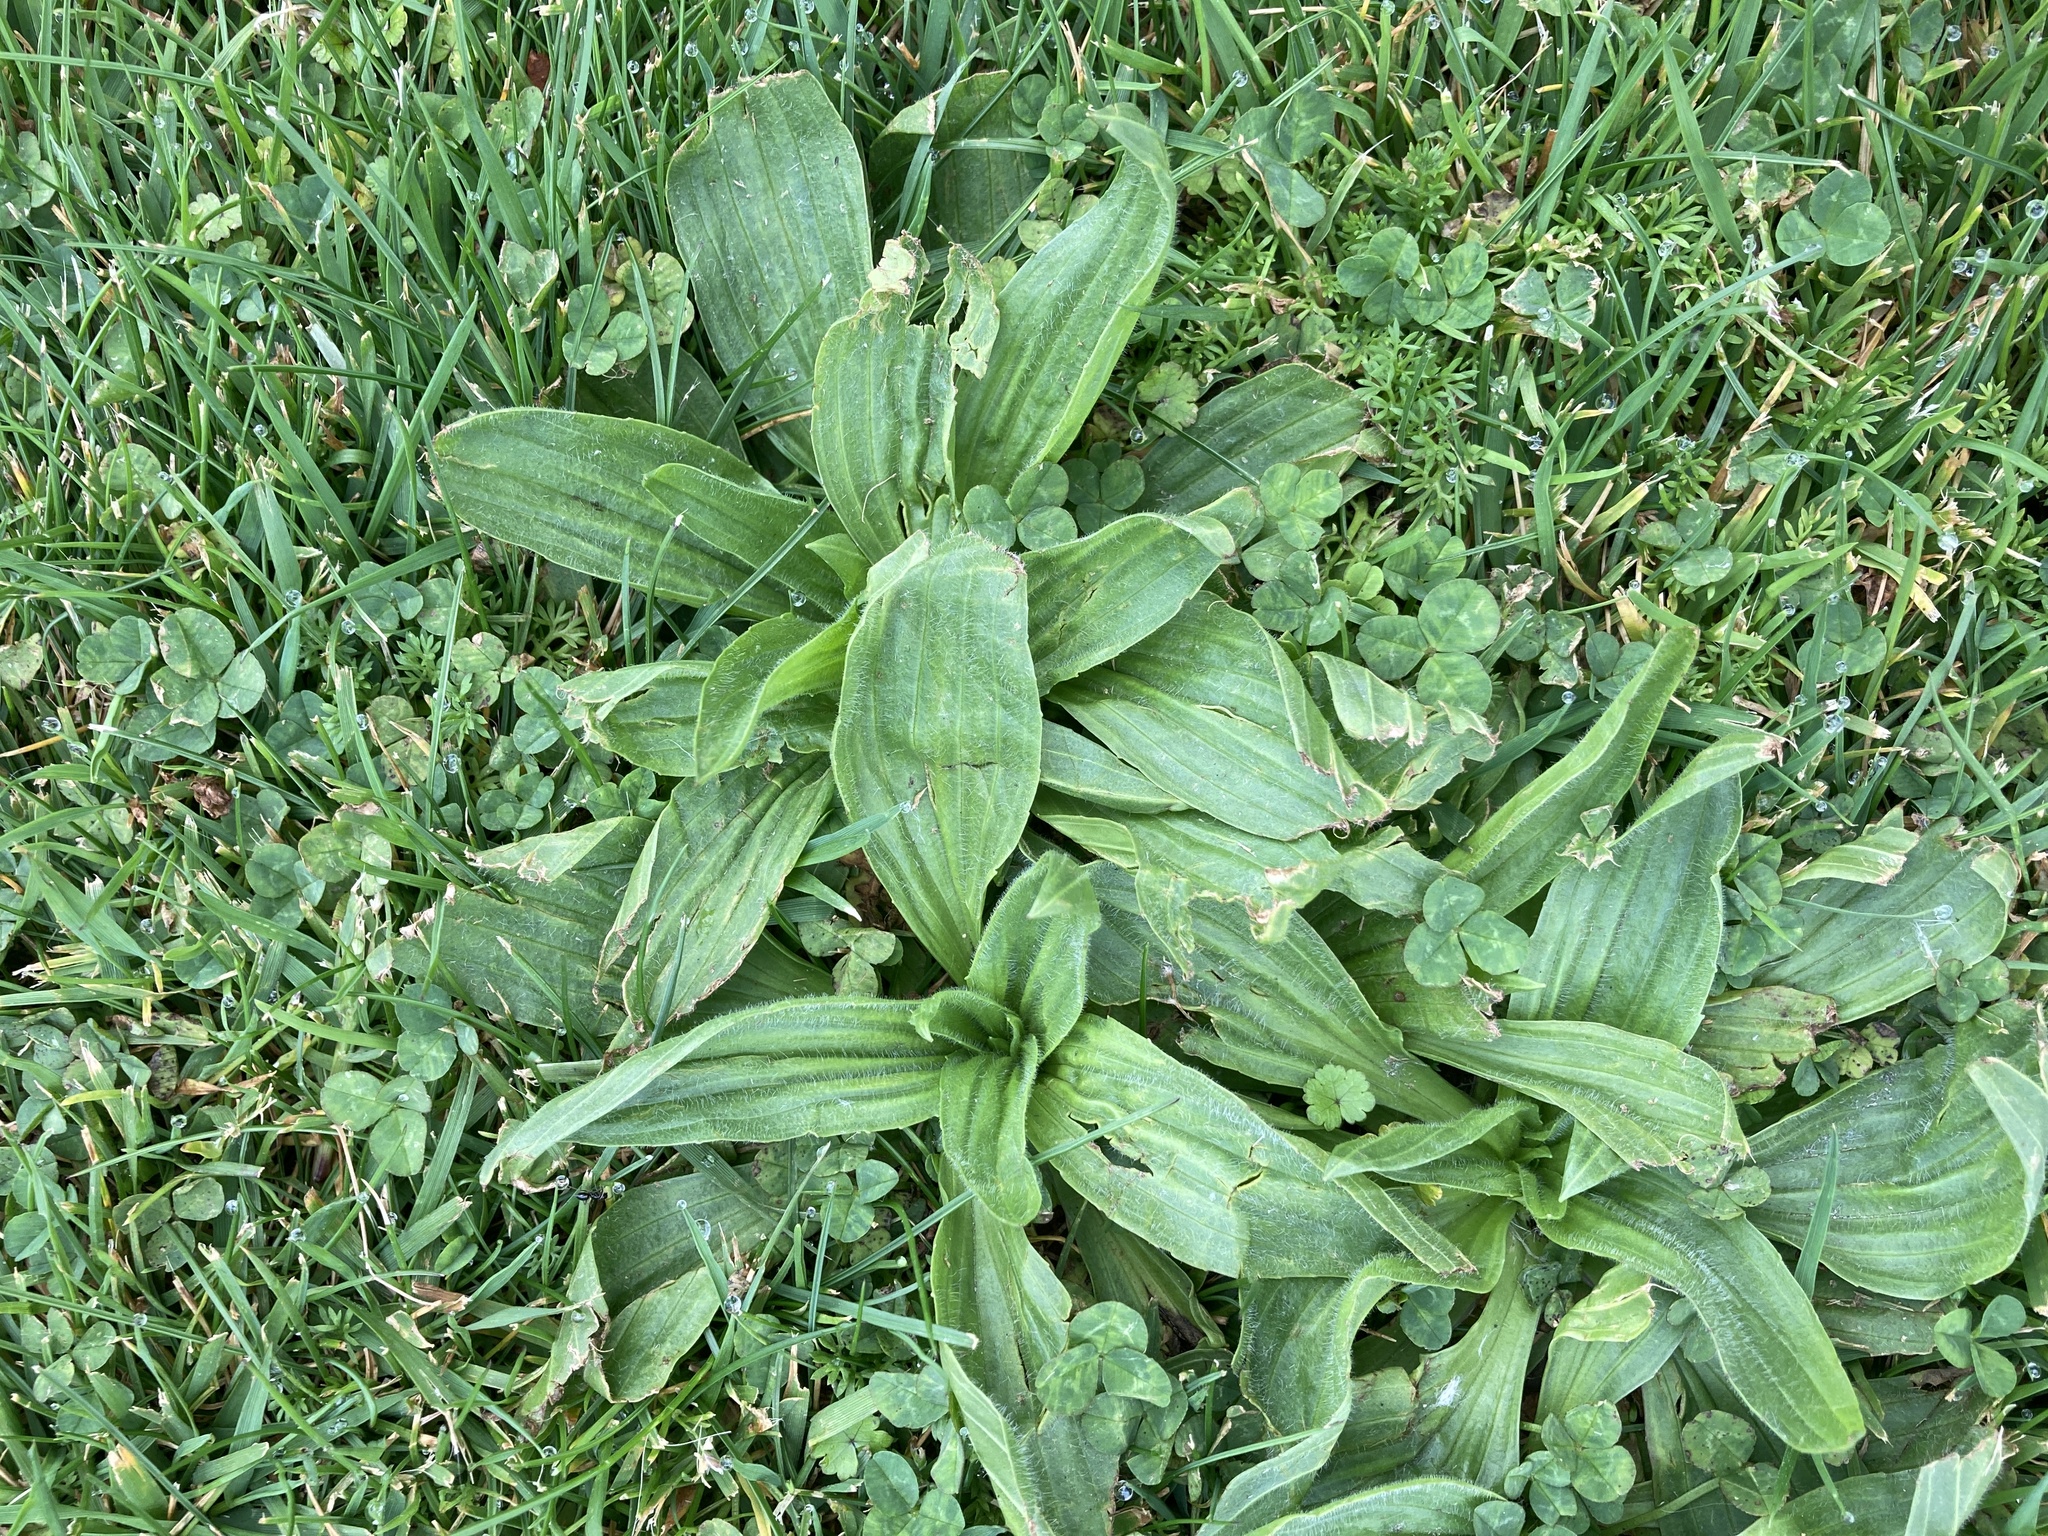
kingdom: Plantae
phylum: Tracheophyta
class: Magnoliopsida
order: Lamiales
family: Plantaginaceae
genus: Plantago
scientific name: Plantago lanceolata
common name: Ribwort plantain
